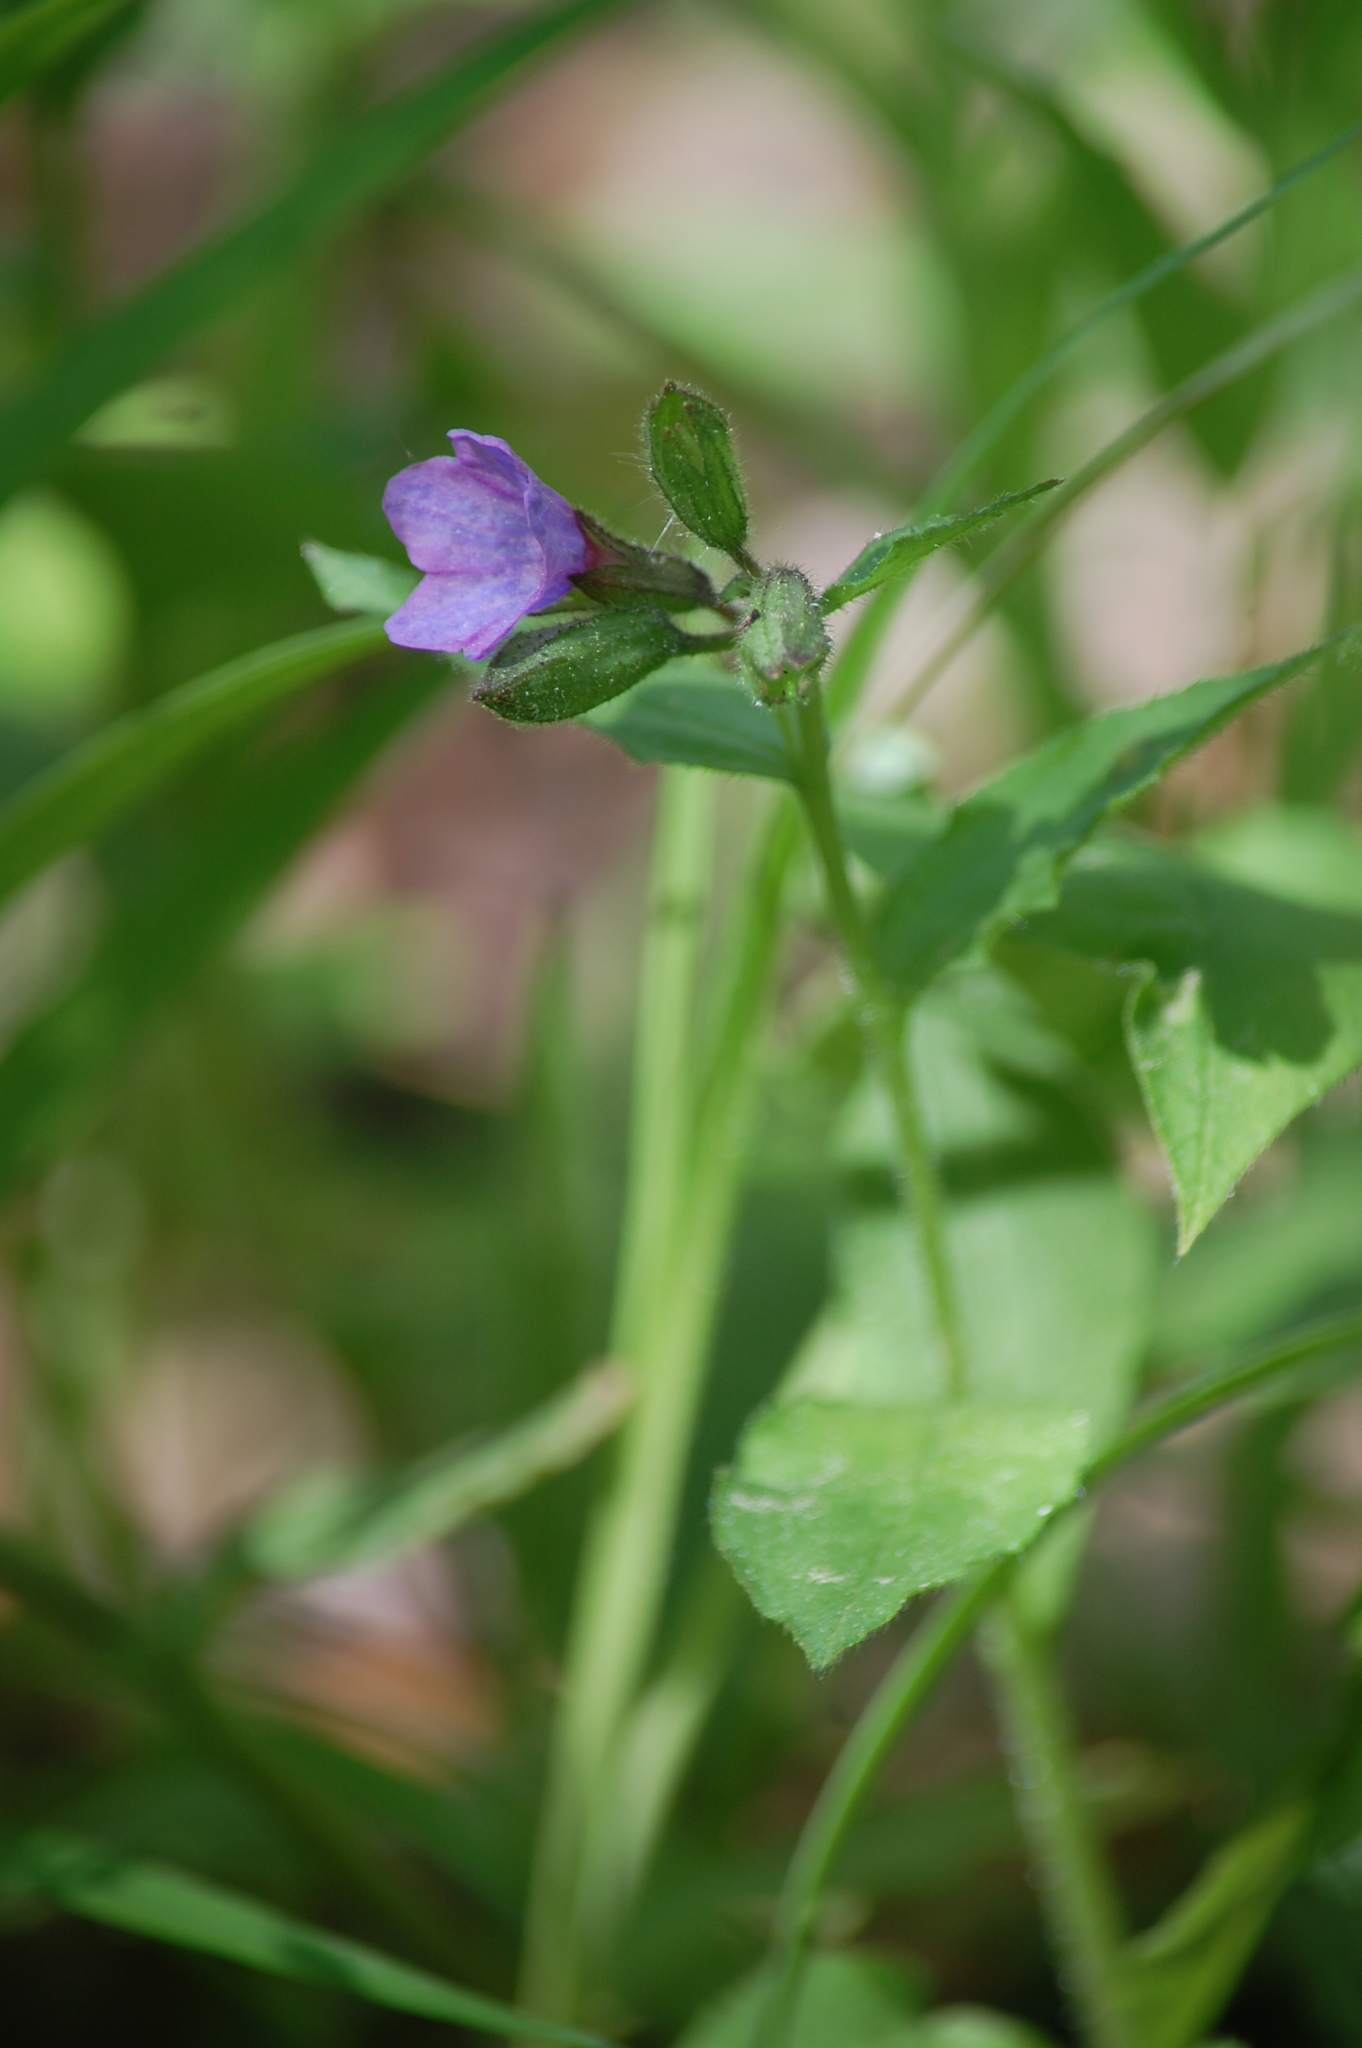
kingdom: Plantae
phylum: Tracheophyta
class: Magnoliopsida
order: Boraginales
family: Boraginaceae
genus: Pulmonaria
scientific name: Pulmonaria obscura
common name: Suffolk lungwort
